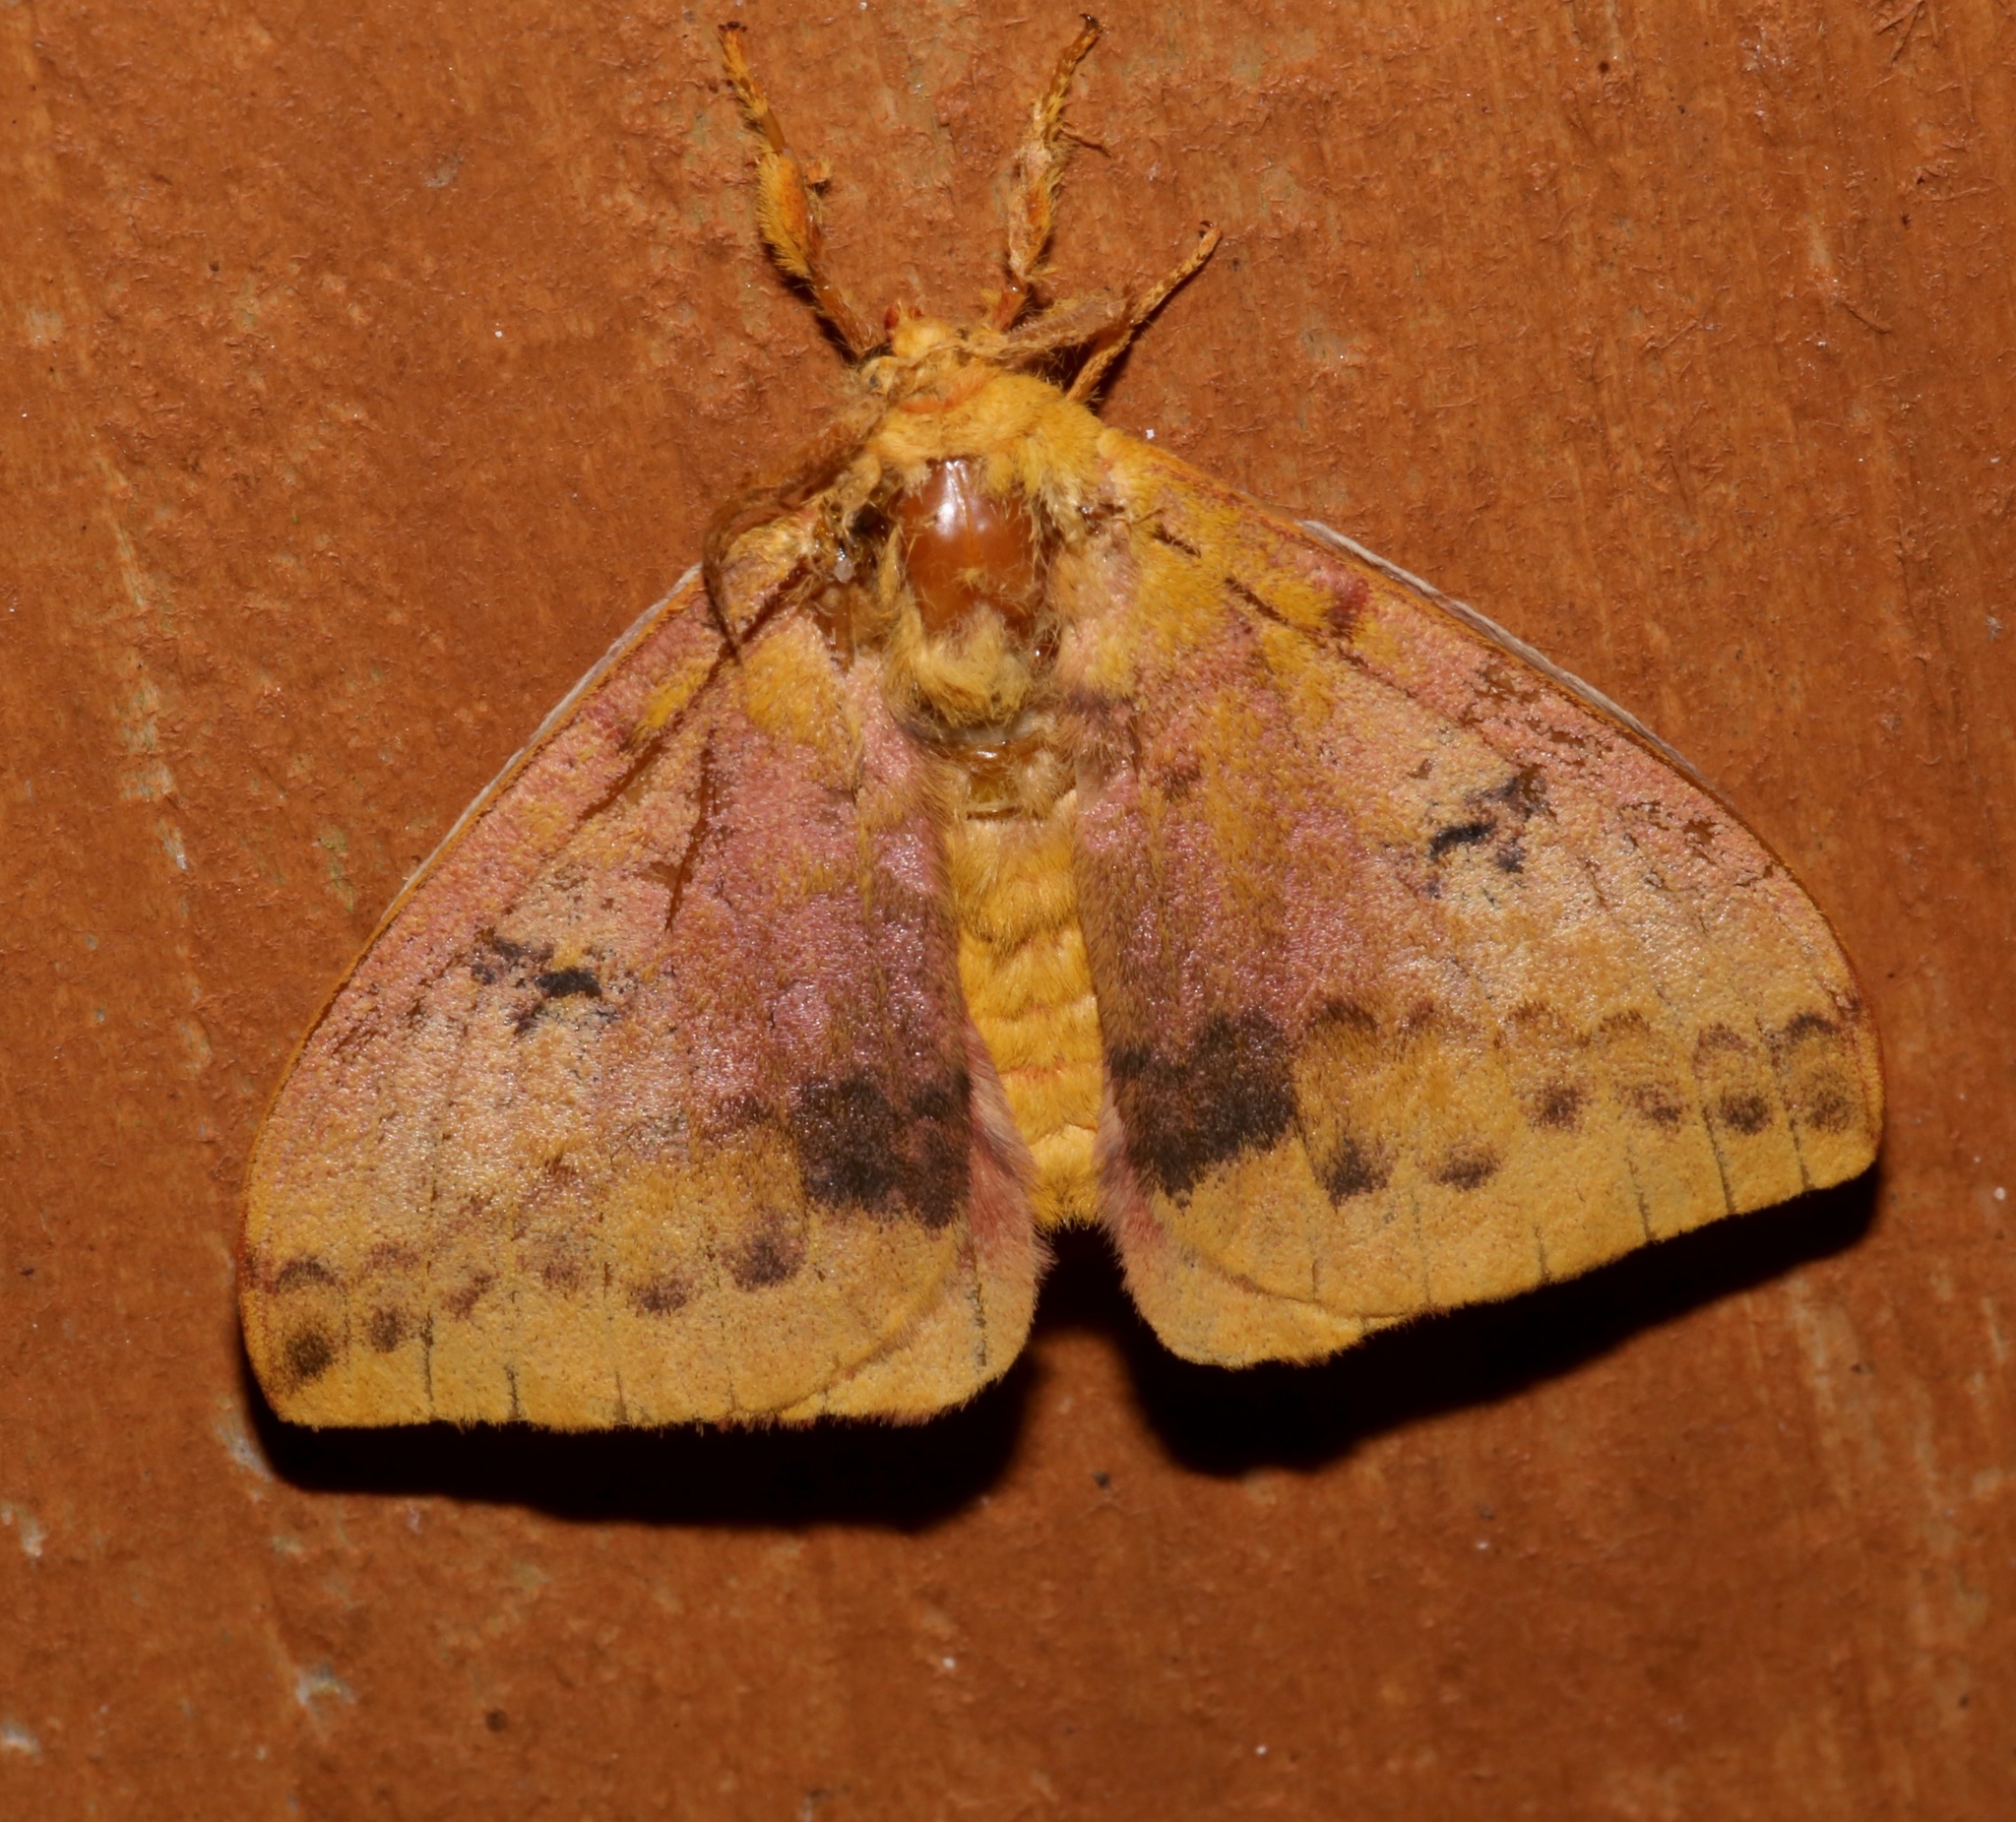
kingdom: Animalia
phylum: Arthropoda
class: Insecta
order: Lepidoptera
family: Saturniidae
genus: Automeris
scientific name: Automeris io
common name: Io moth
